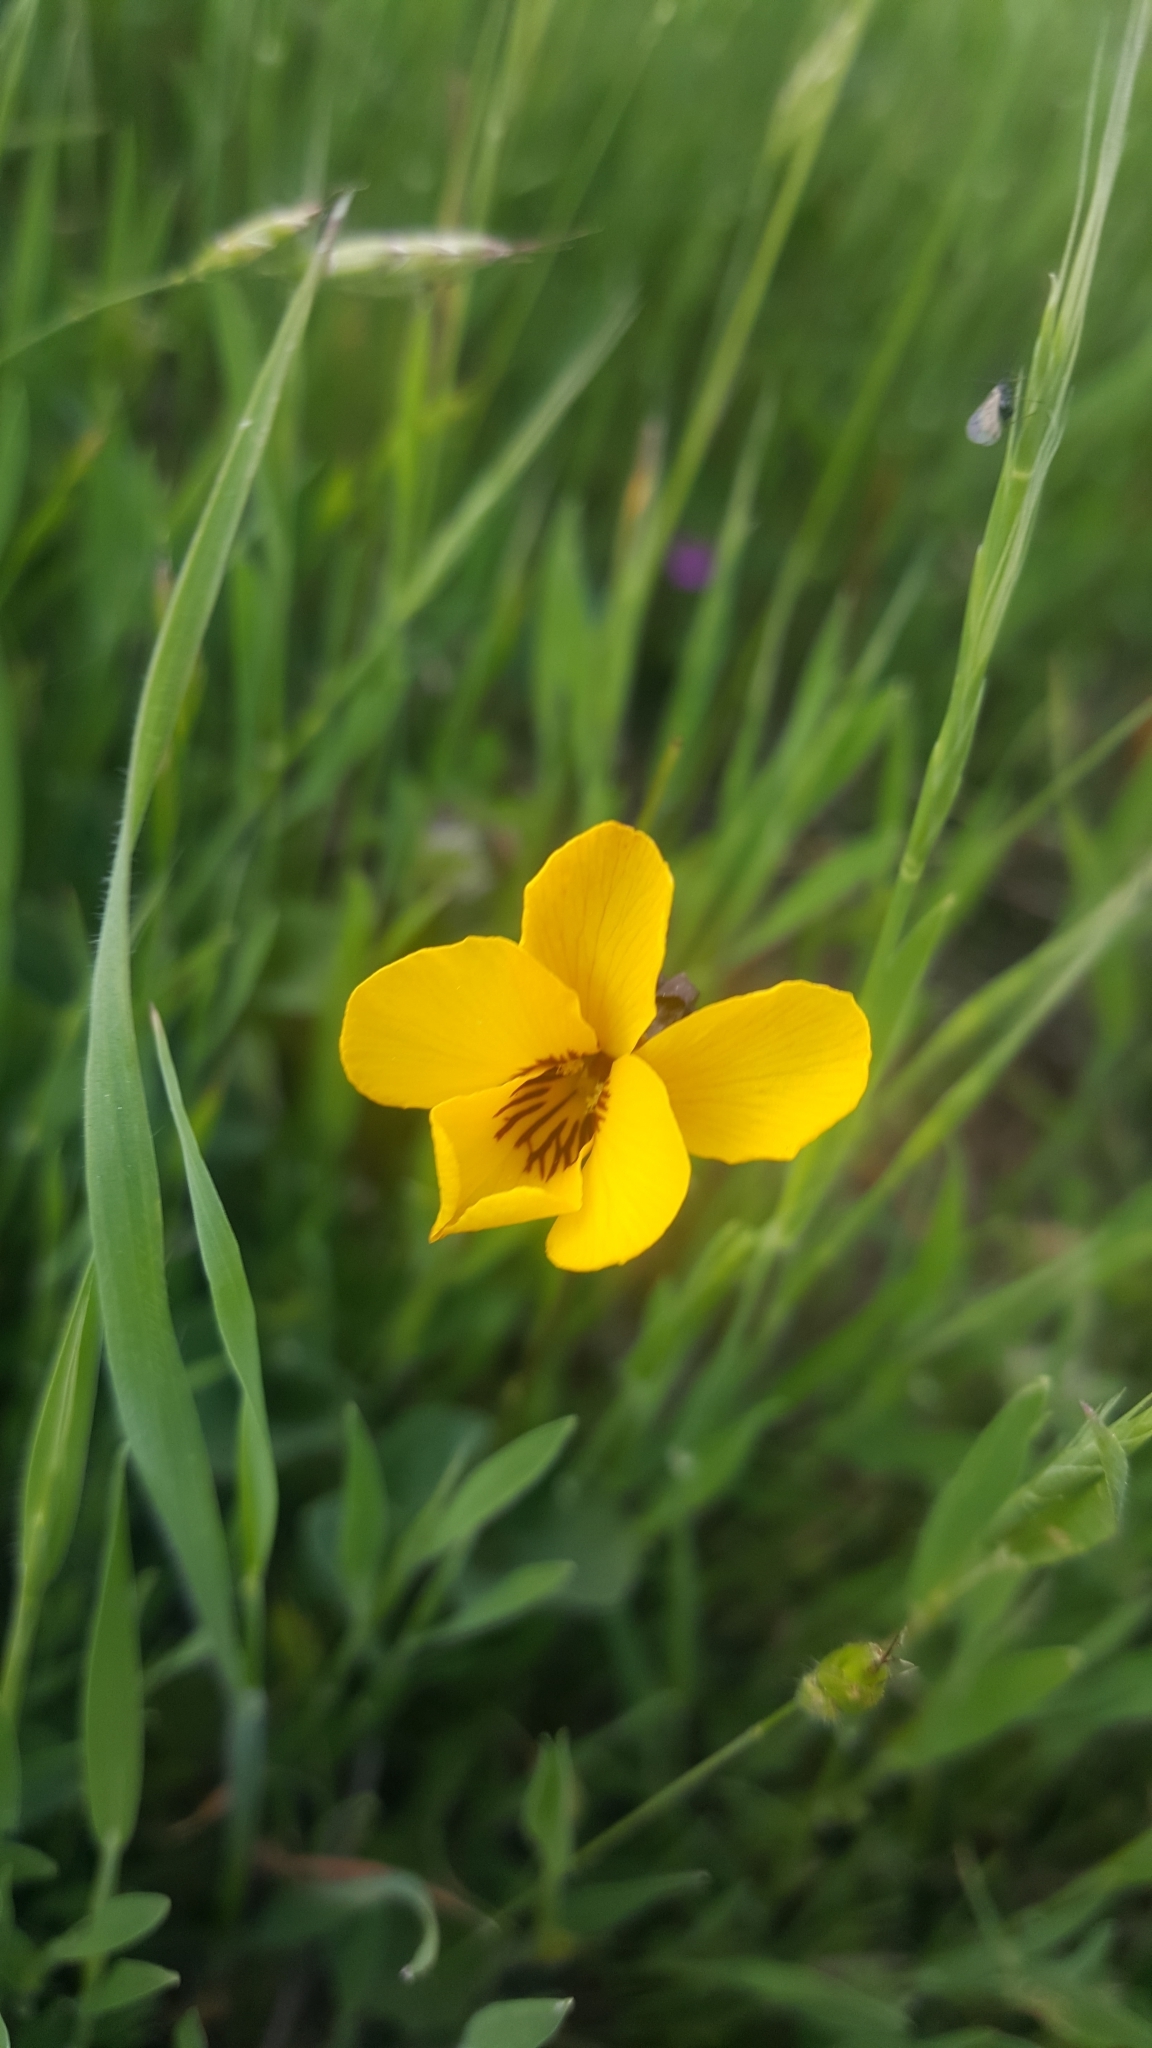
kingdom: Plantae
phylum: Tracheophyta
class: Magnoliopsida
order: Malpighiales
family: Violaceae
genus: Viola
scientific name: Viola pedunculata
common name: California golden violet
